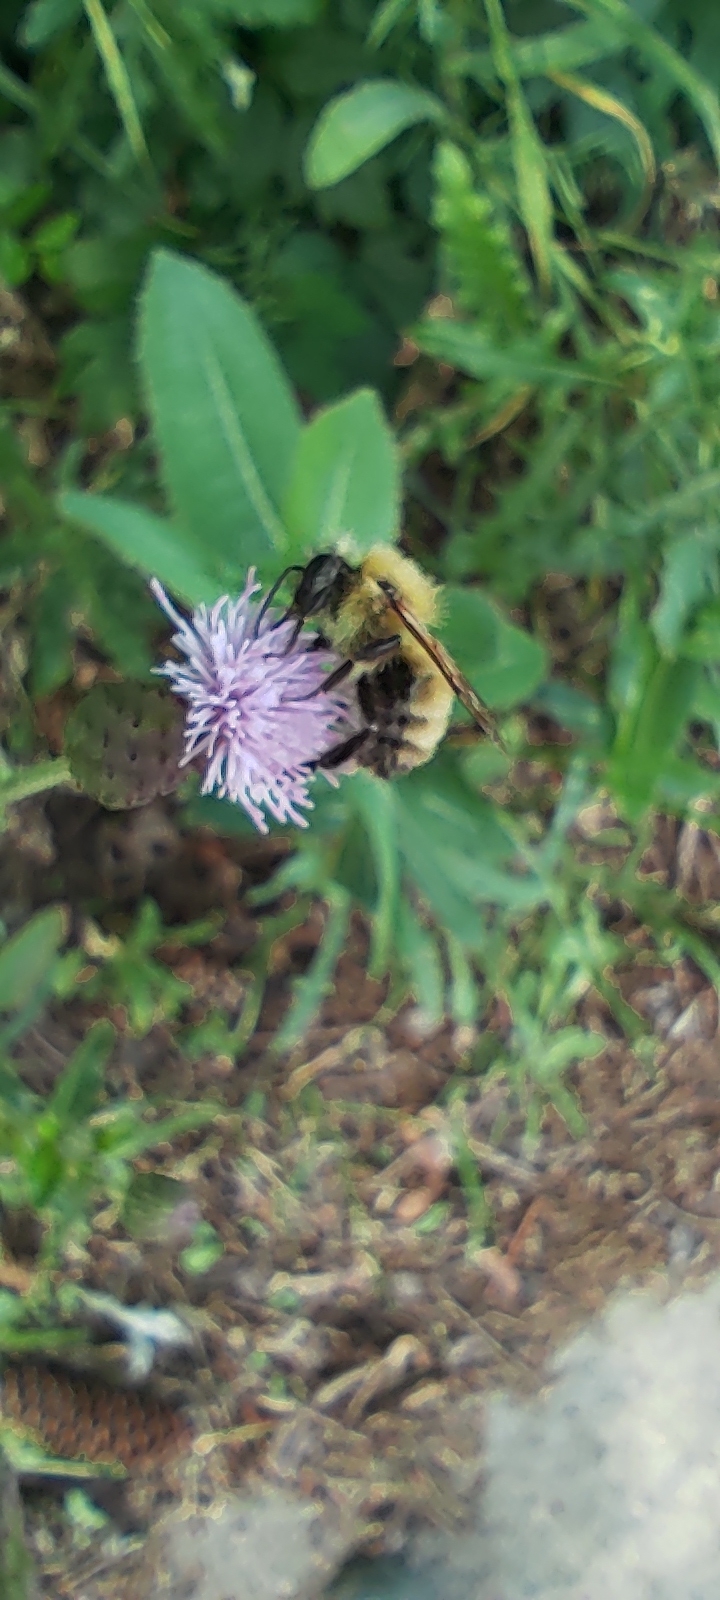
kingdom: Animalia
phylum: Arthropoda
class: Insecta
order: Hymenoptera
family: Apidae
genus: Bombus
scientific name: Bombus perplexus
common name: Confusing bumble bee
